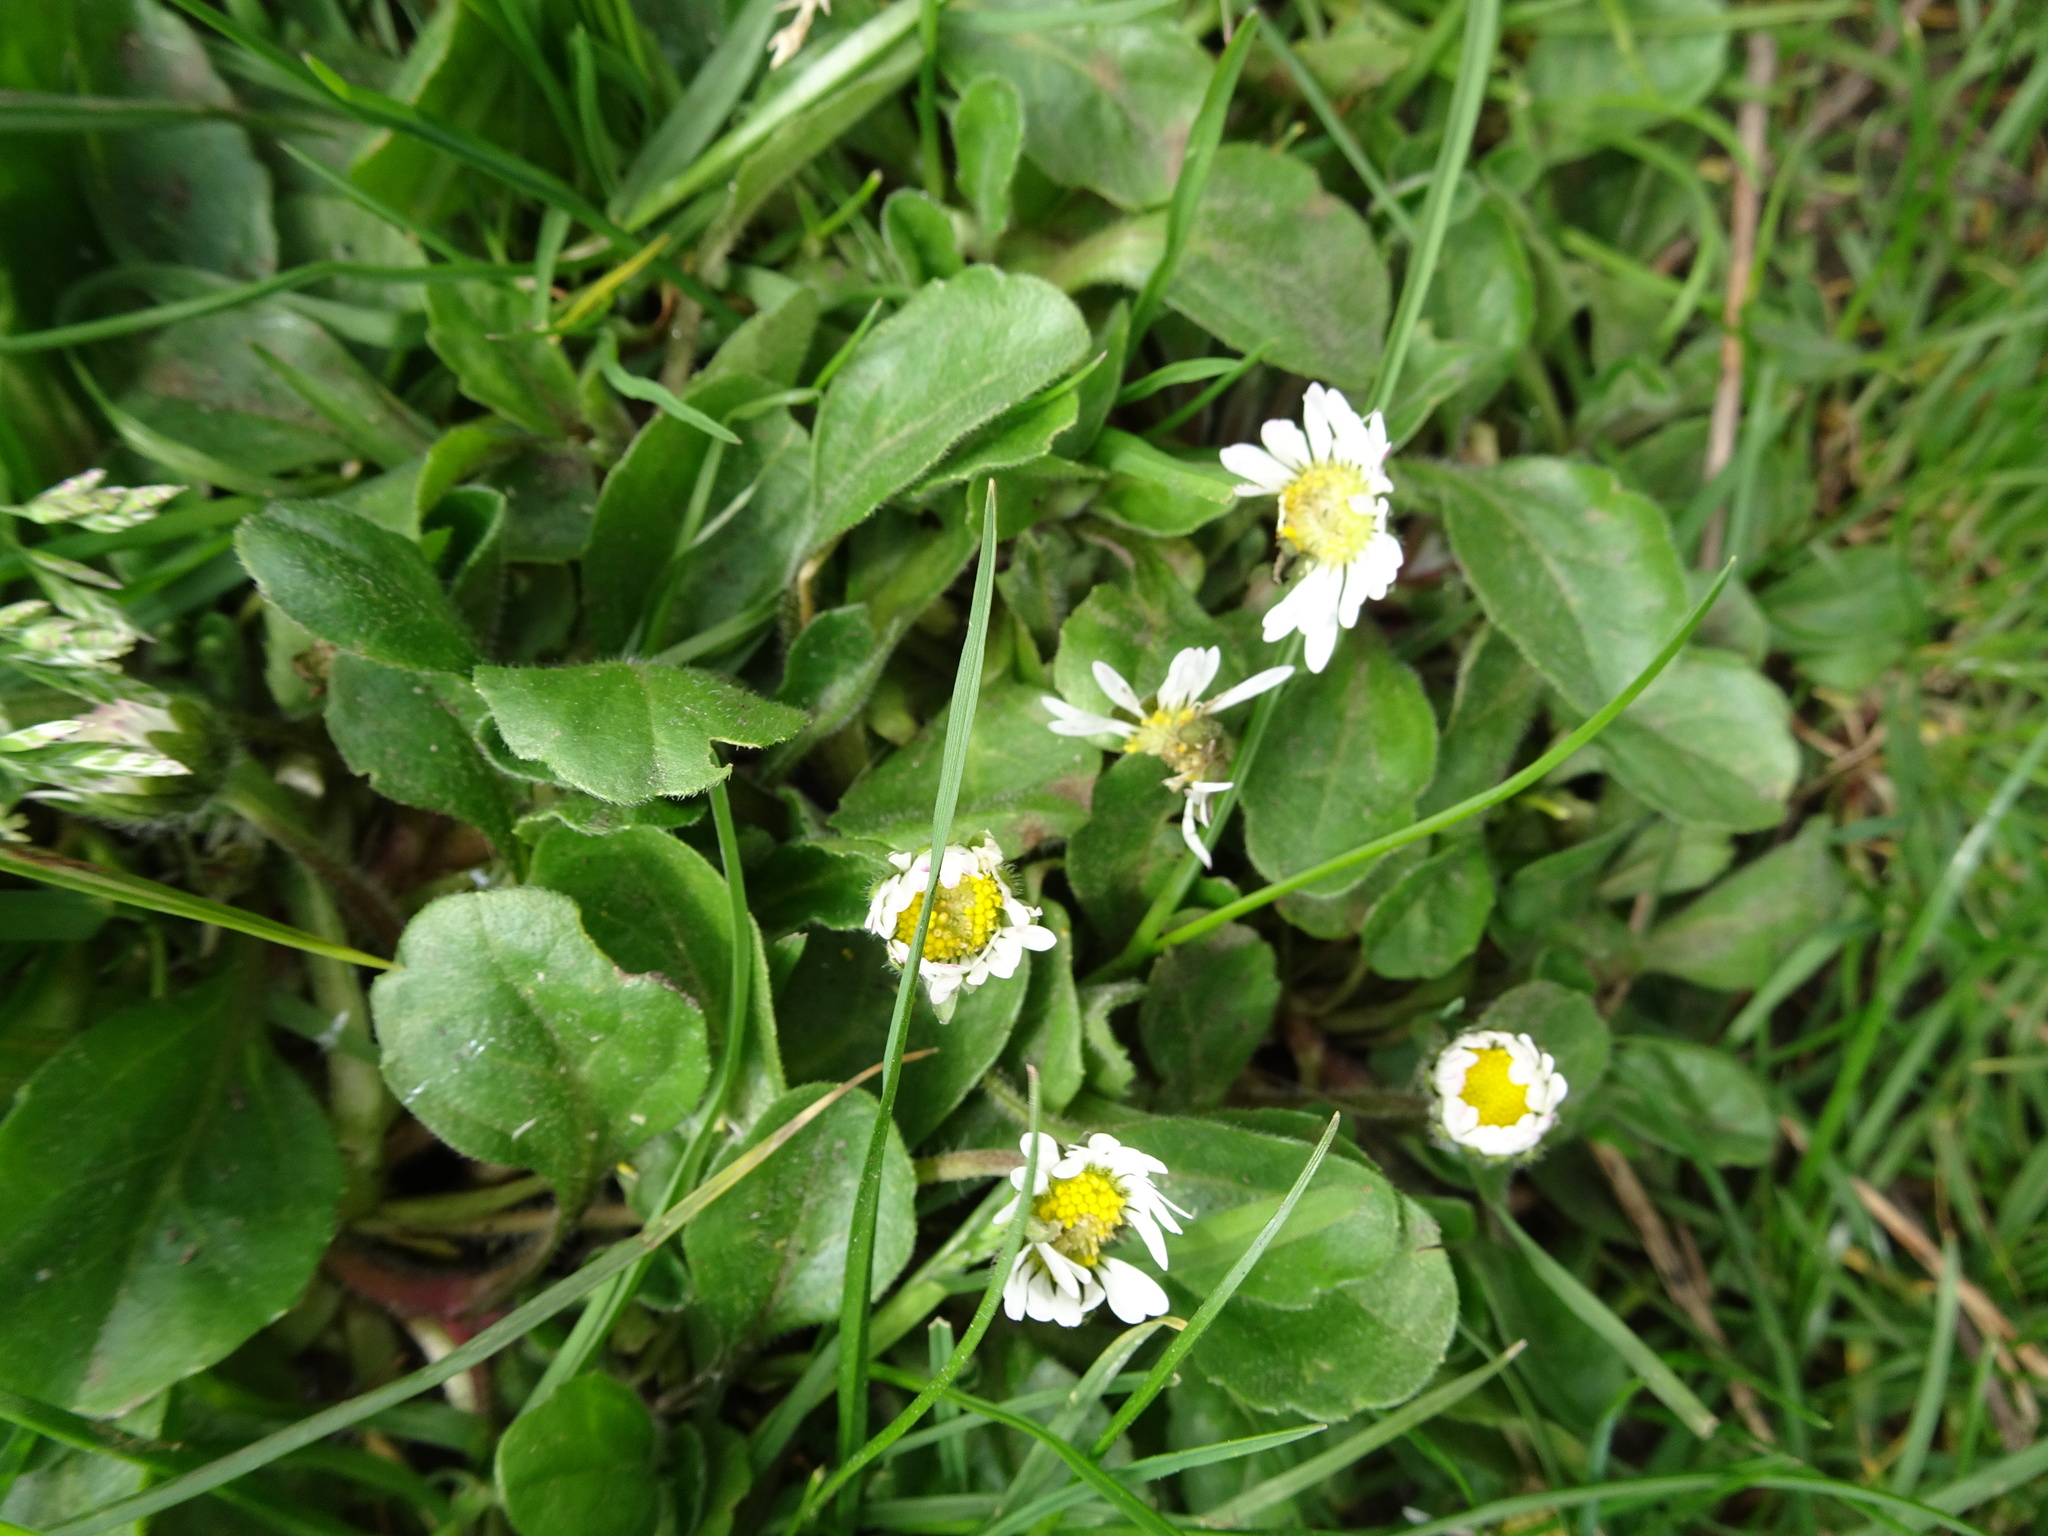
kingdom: Plantae
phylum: Tracheophyta
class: Magnoliopsida
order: Asterales
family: Asteraceae
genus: Bellis
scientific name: Bellis perennis
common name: Lawndaisy
